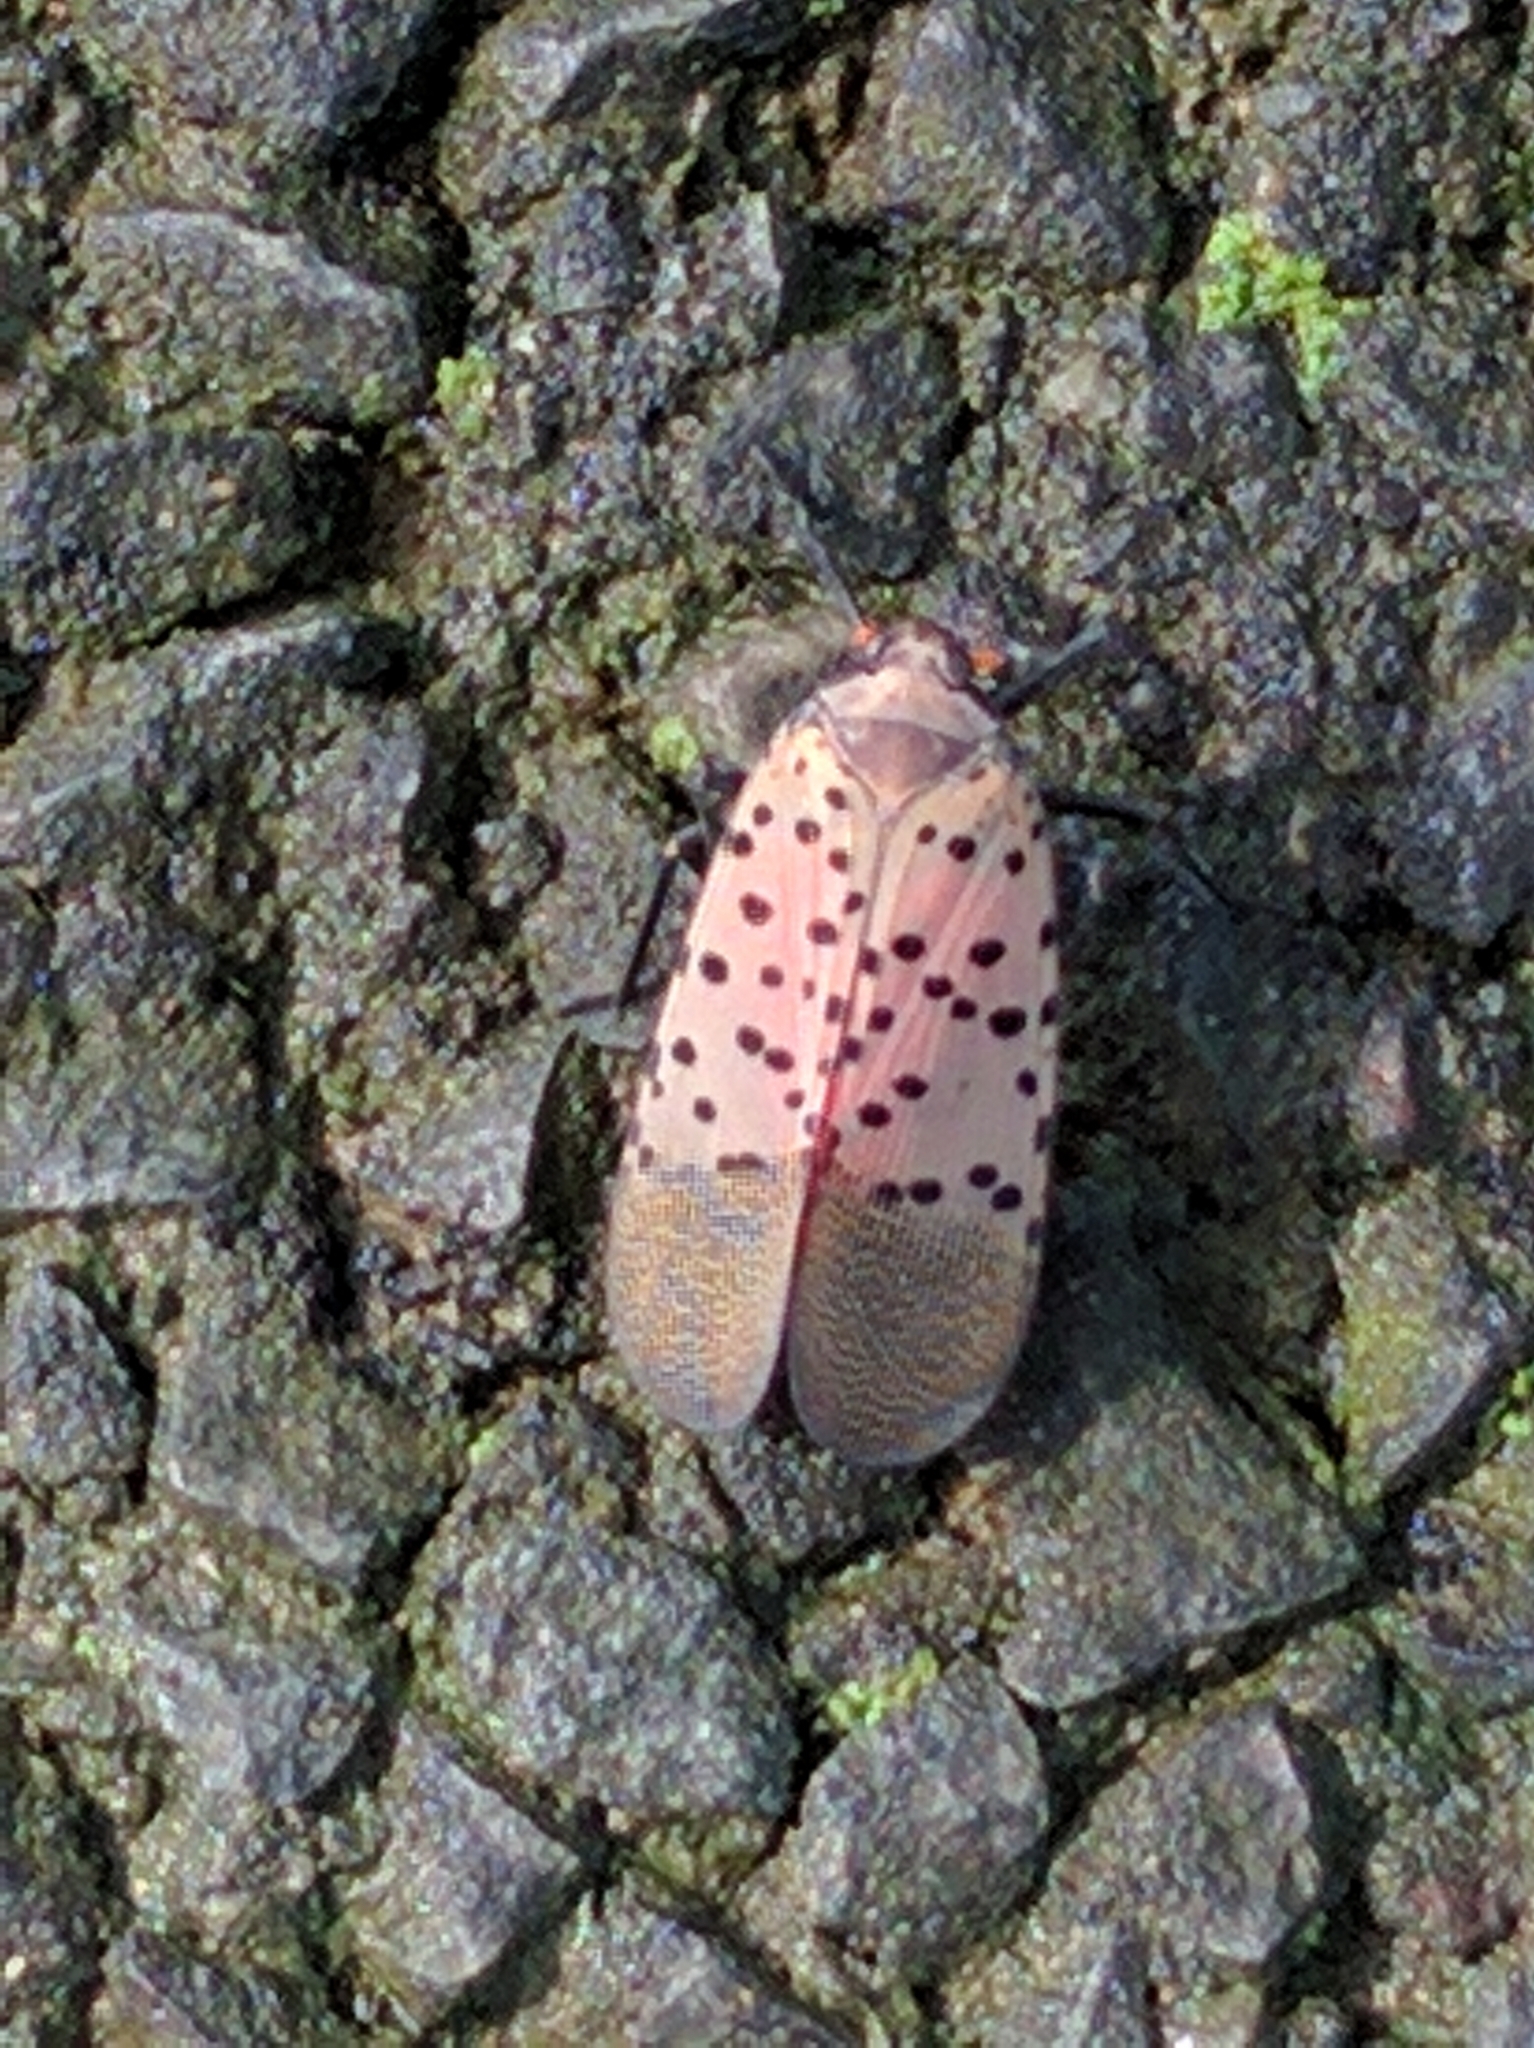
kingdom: Animalia
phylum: Arthropoda
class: Insecta
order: Hemiptera
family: Fulgoridae
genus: Lycorma
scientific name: Lycorma delicatula
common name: Spotted lanternfly
